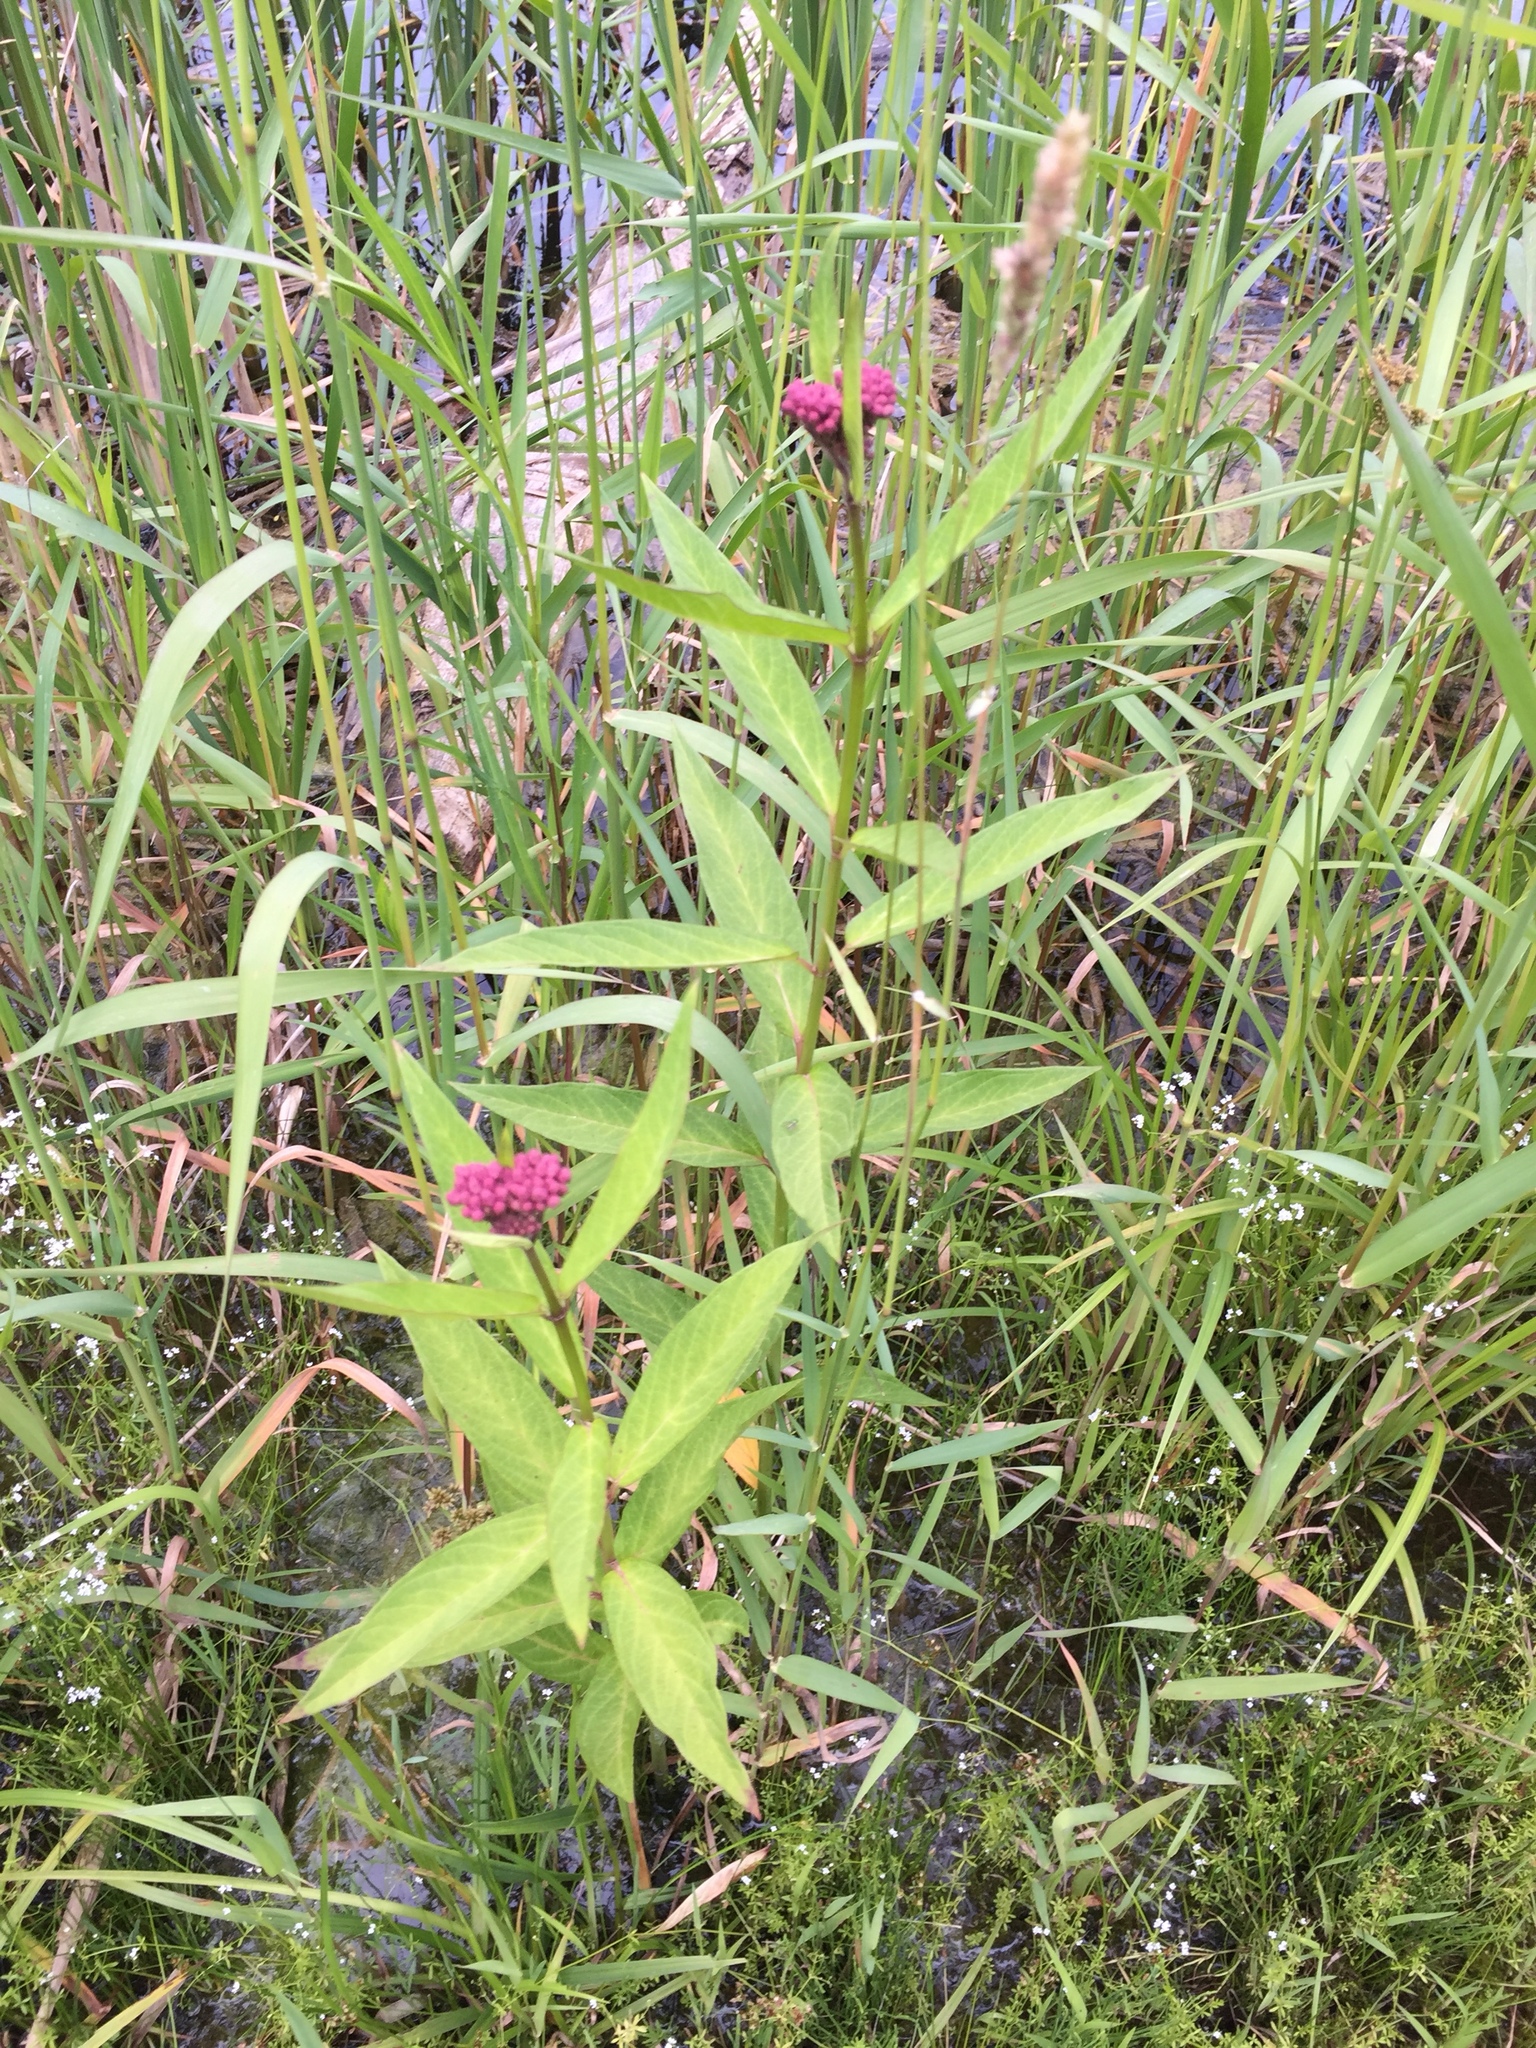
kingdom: Plantae
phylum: Tracheophyta
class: Magnoliopsida
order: Gentianales
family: Apocynaceae
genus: Asclepias
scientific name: Asclepias incarnata
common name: Swamp milkweed
